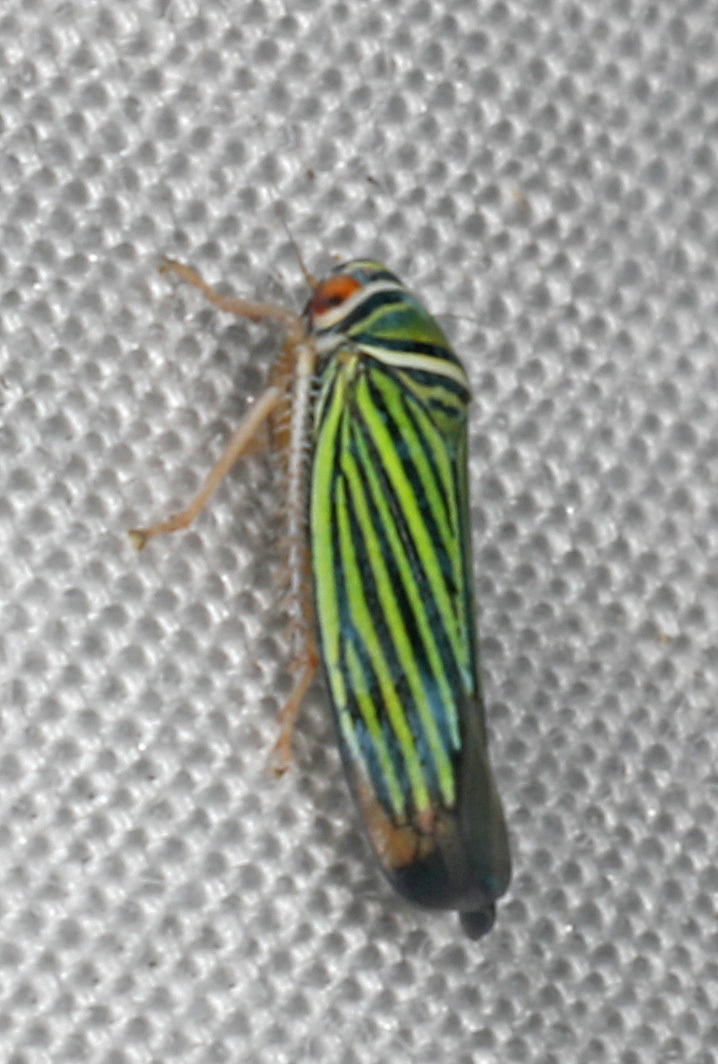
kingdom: Animalia
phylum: Arthropoda
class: Insecta
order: Hemiptera
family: Cicadellidae
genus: Tylozygus
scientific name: Tylozygus bifidus
